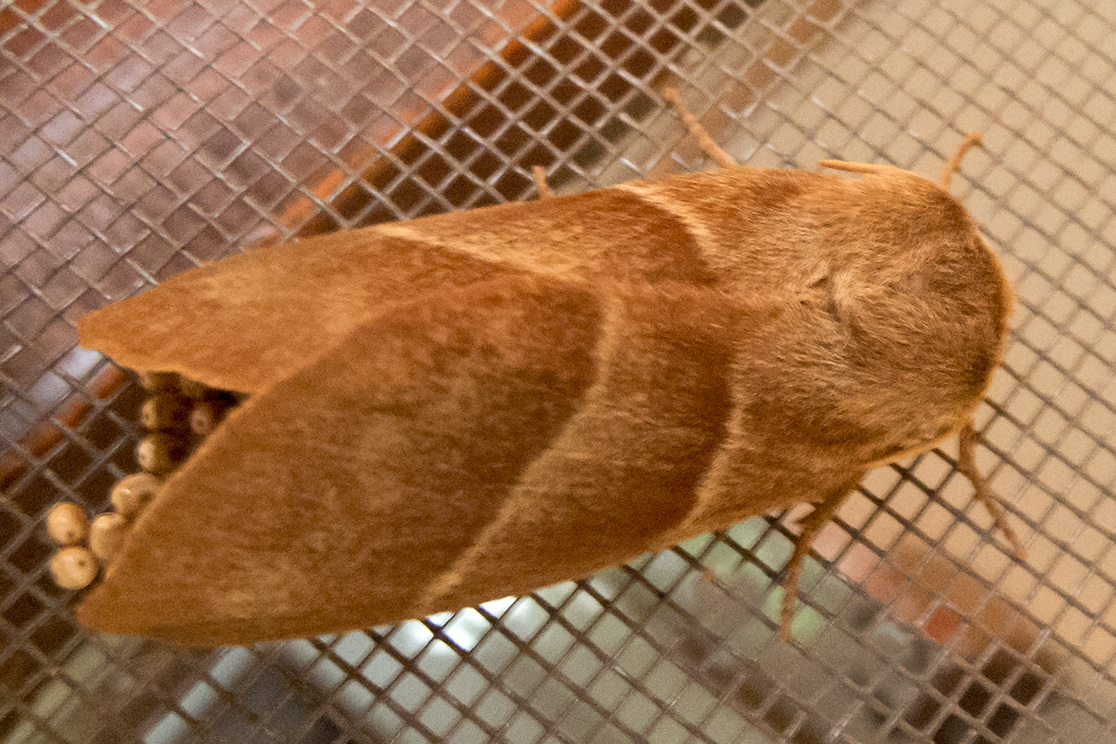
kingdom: Animalia
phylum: Arthropoda
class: Insecta
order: Lepidoptera
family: Lasiocampidae
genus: Macrothylacia
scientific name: Macrothylacia rubi
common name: Fox moth
